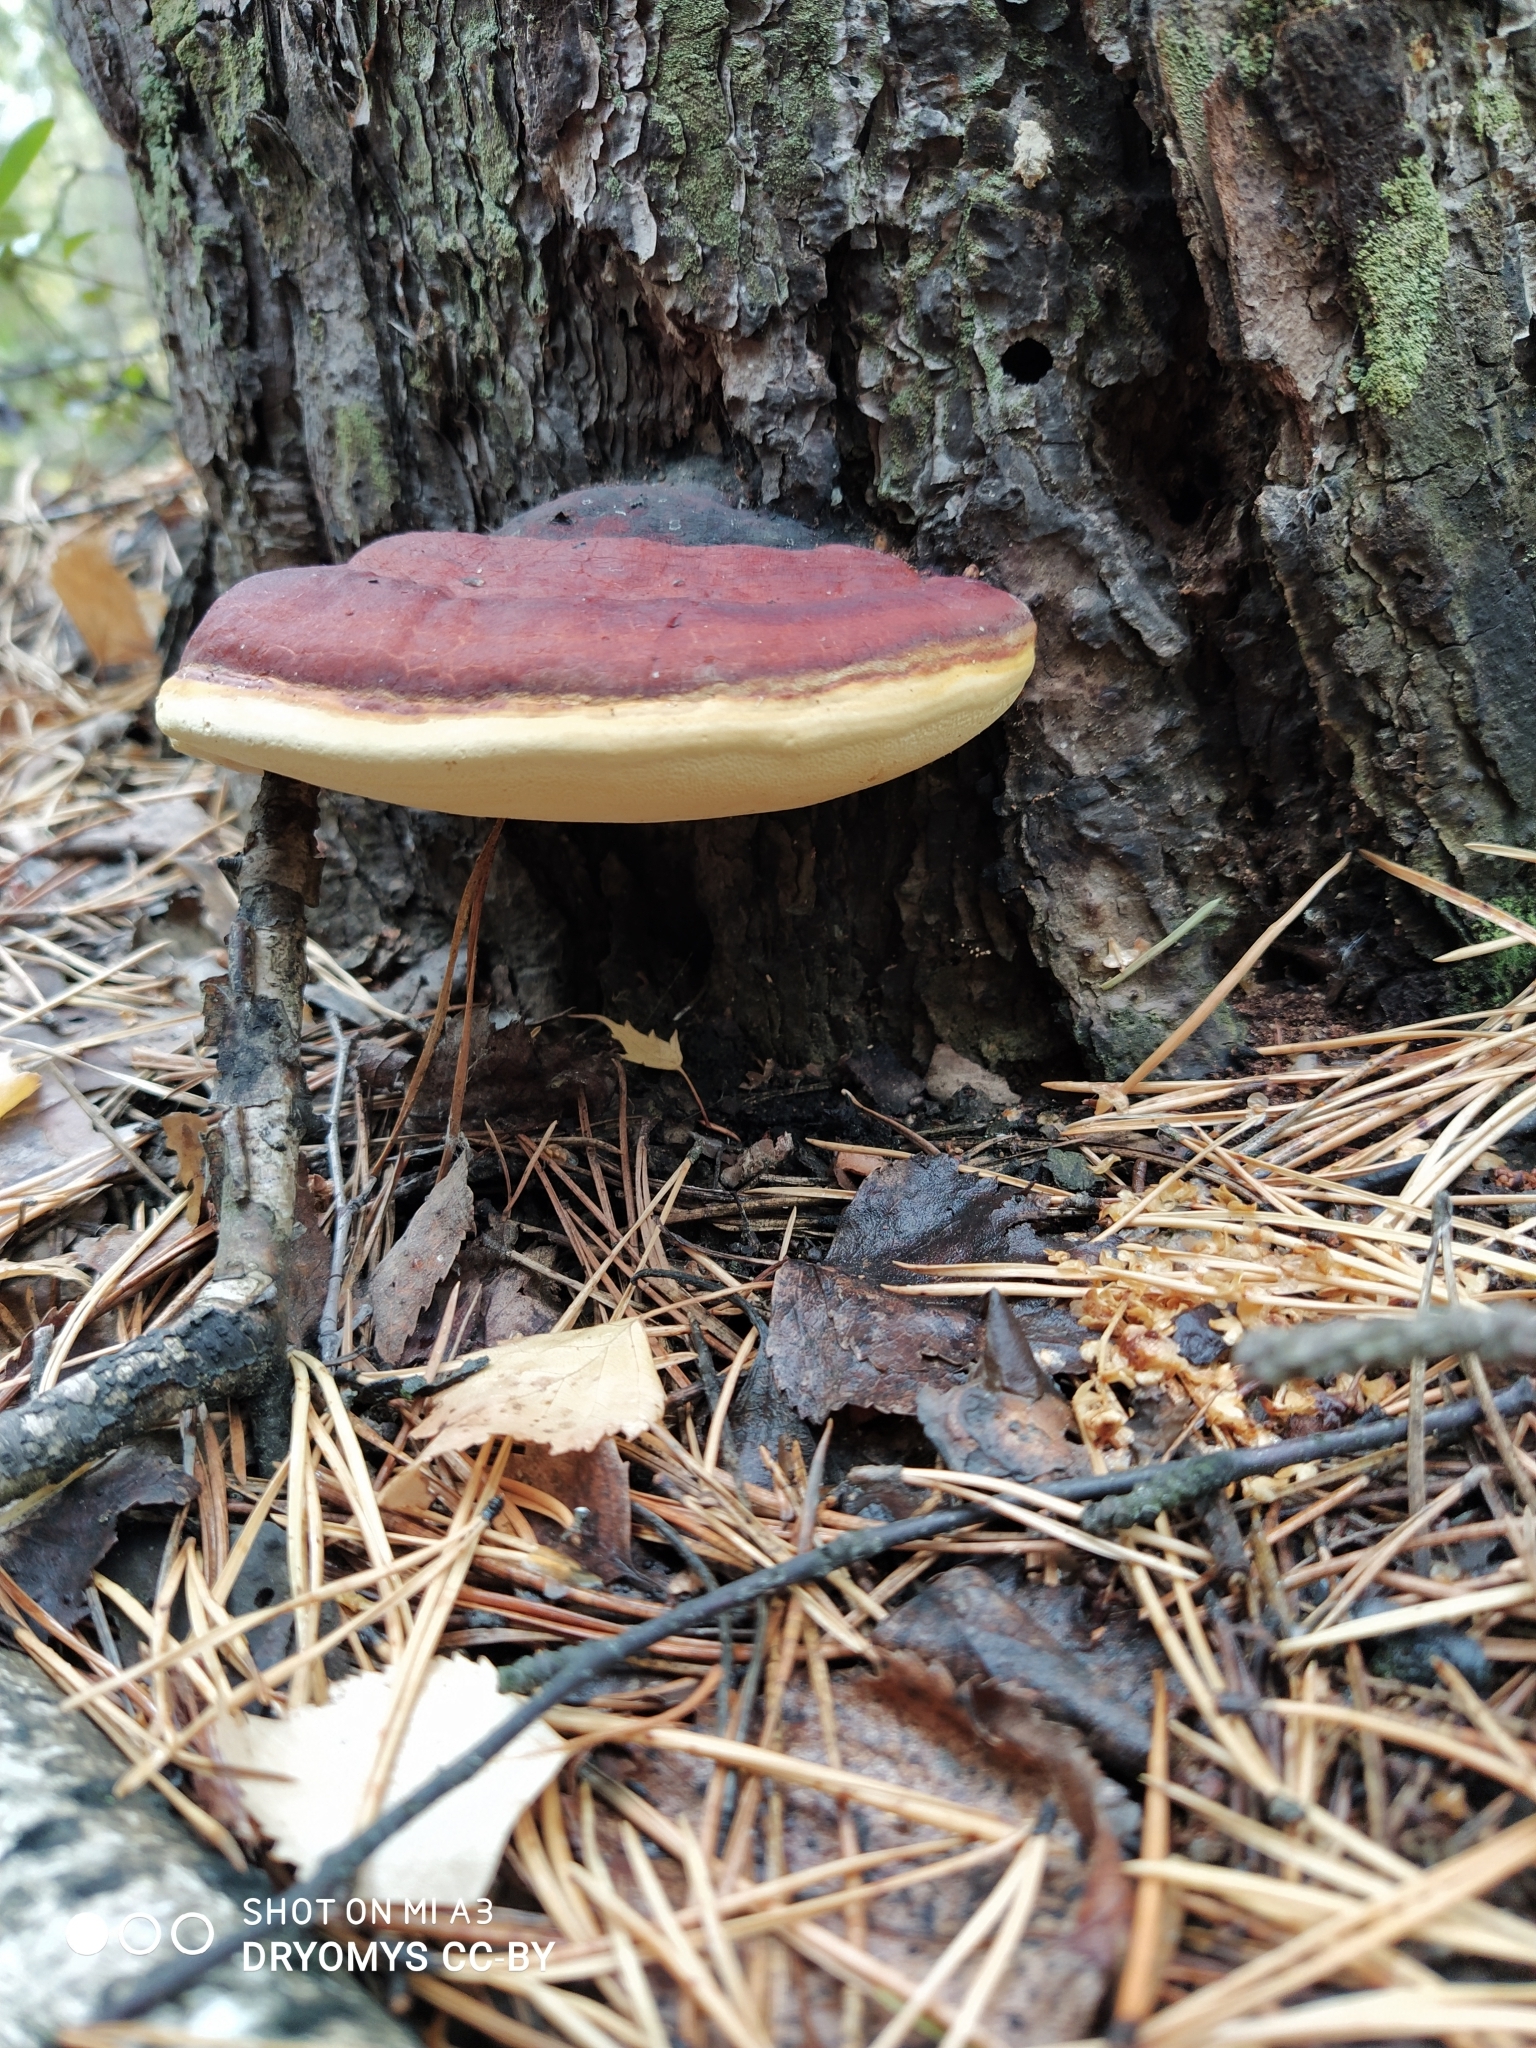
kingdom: Fungi
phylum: Basidiomycota
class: Agaricomycetes
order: Polyporales
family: Fomitopsidaceae
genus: Fomitopsis
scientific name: Fomitopsis pinicola
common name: Red-belted bracket
